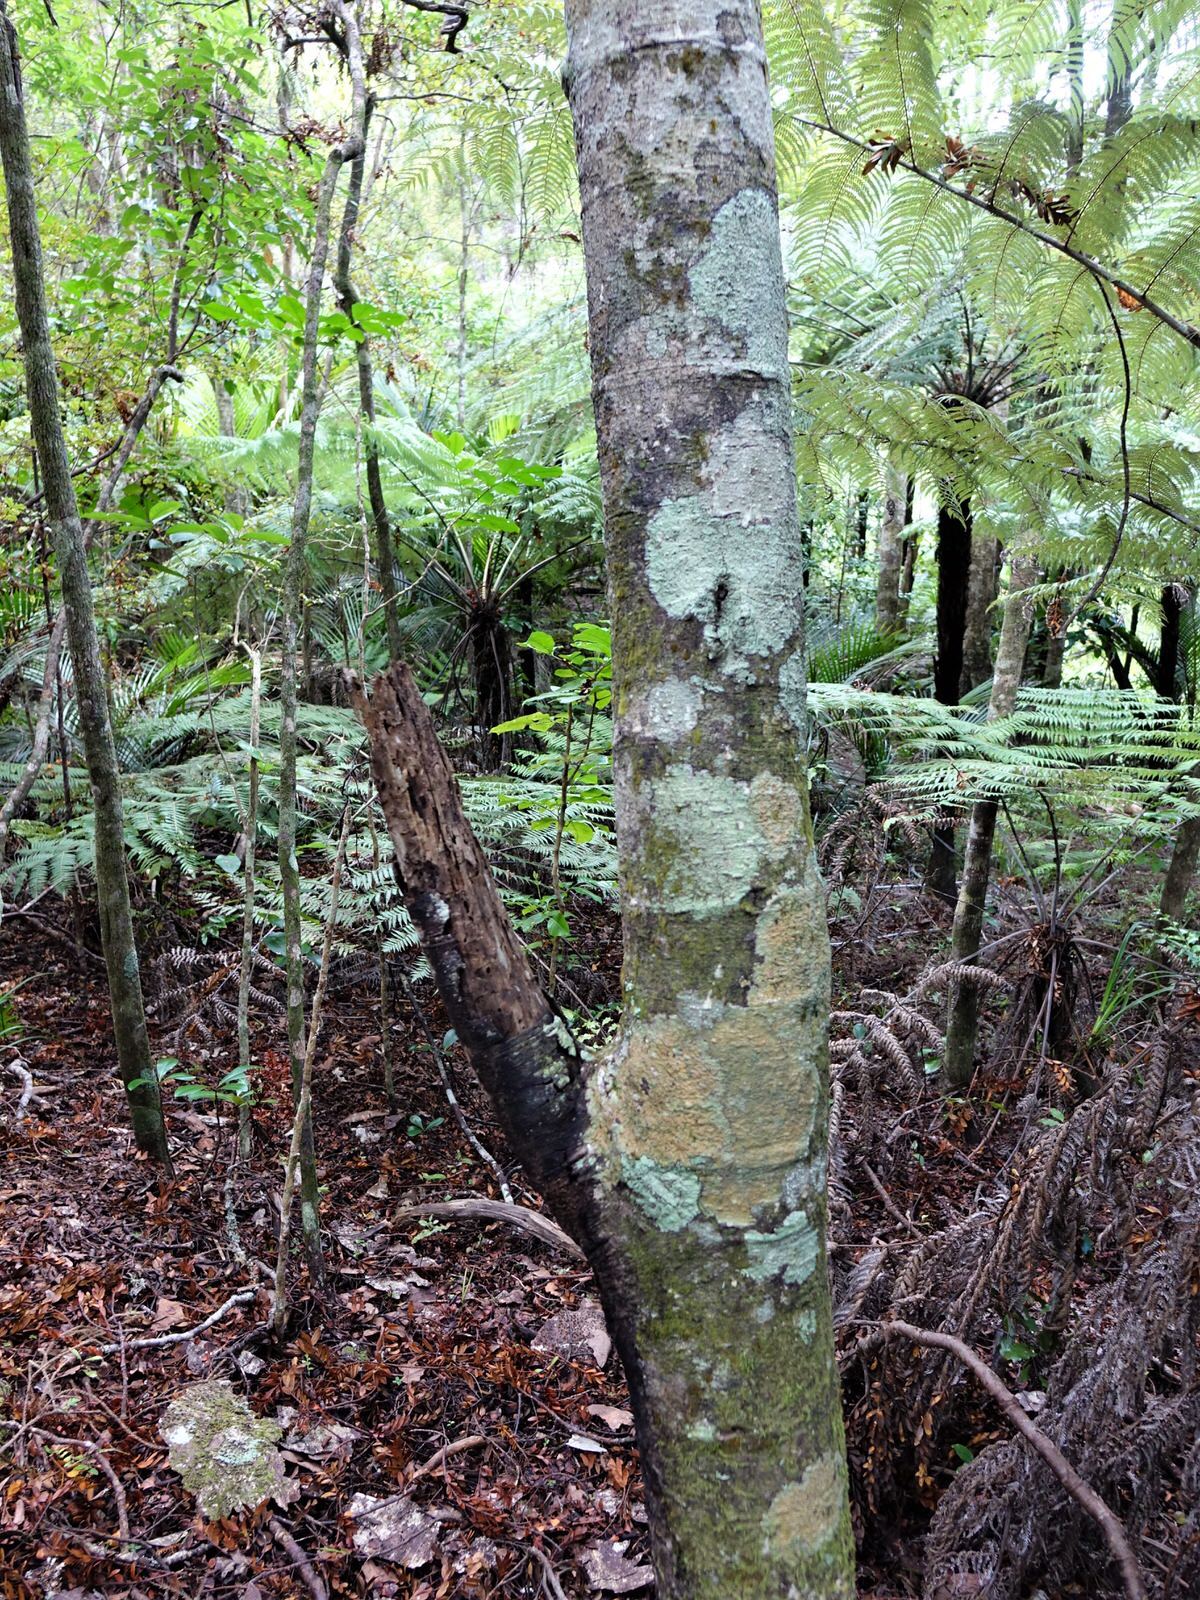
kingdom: Plantae
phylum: Tracheophyta
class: Pinopsida
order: Pinales
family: Phyllocladaceae
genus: Phyllocladus
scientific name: Phyllocladus trichomanoides
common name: Celery pine
